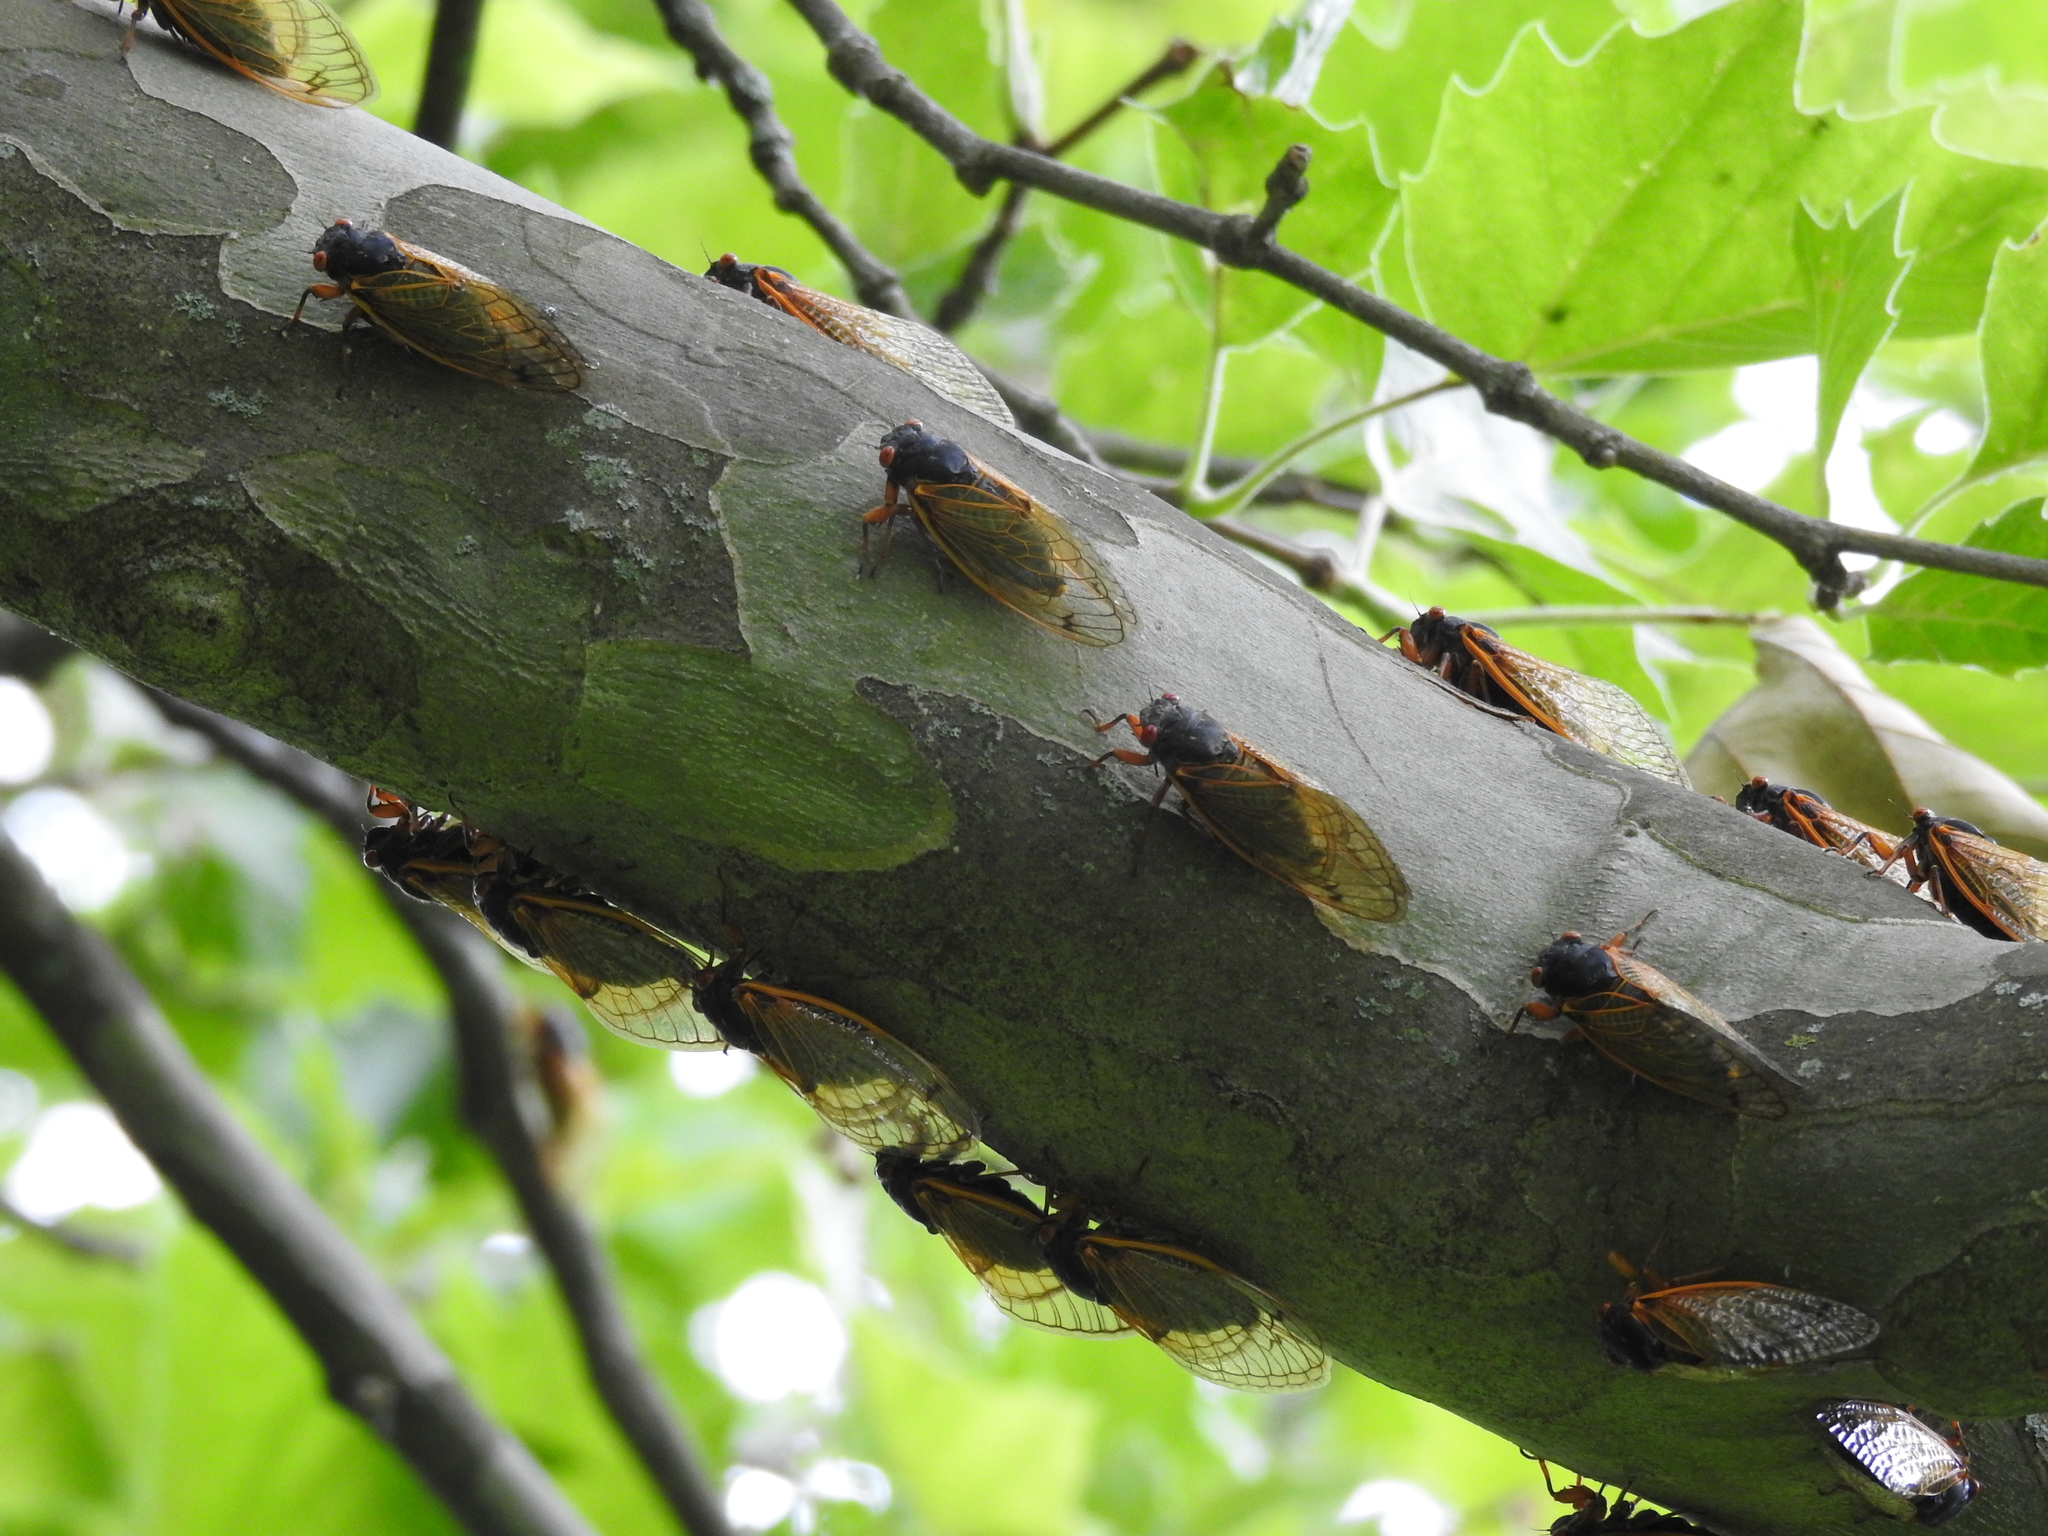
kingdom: Animalia
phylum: Arthropoda
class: Insecta
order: Hemiptera
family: Cicadidae
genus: Magicicada
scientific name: Magicicada
